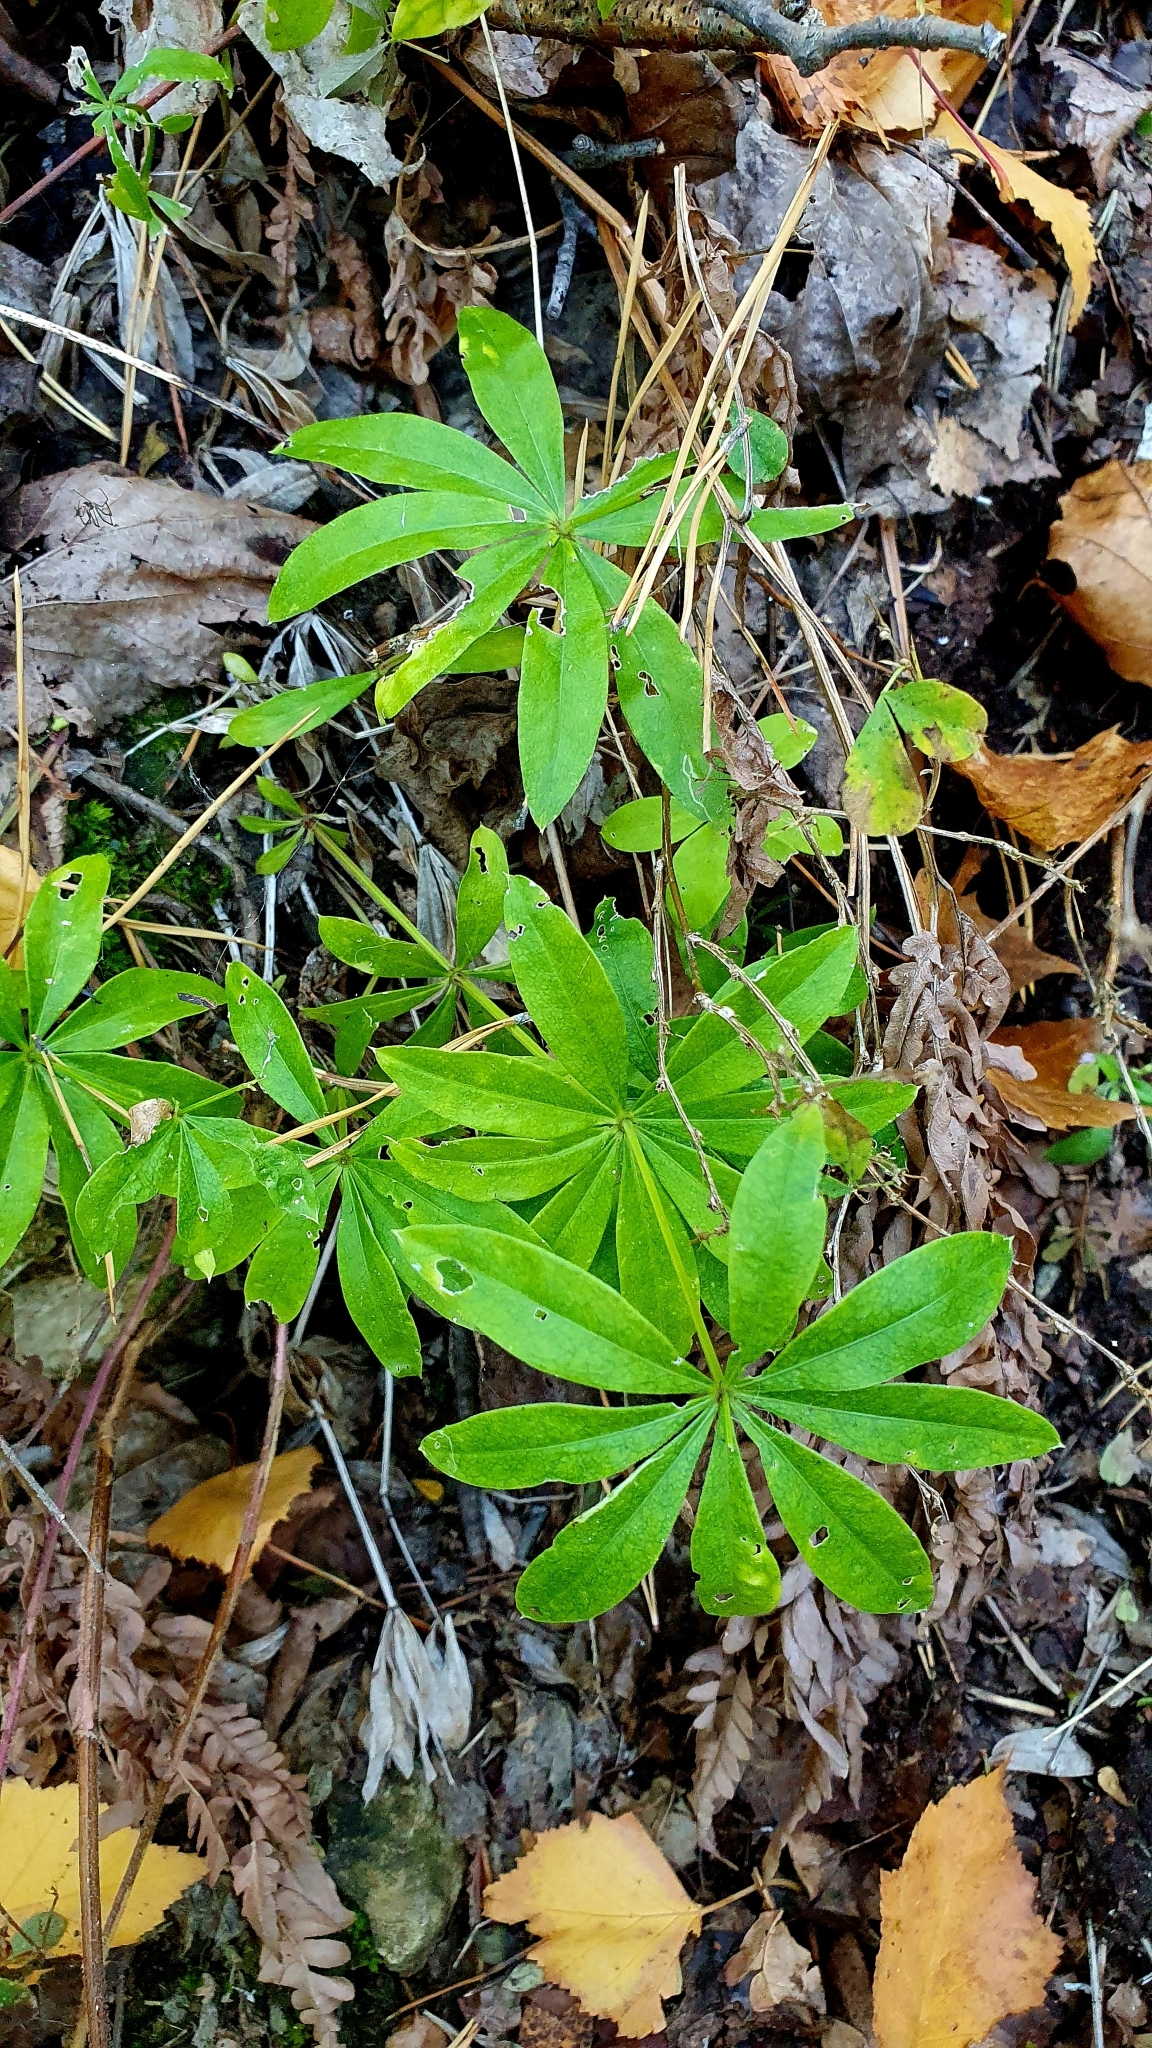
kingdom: Plantae
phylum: Tracheophyta
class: Magnoliopsida
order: Gentianales
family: Rubiaceae
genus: Galium
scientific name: Galium odoratum
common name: Sweet woodruff
